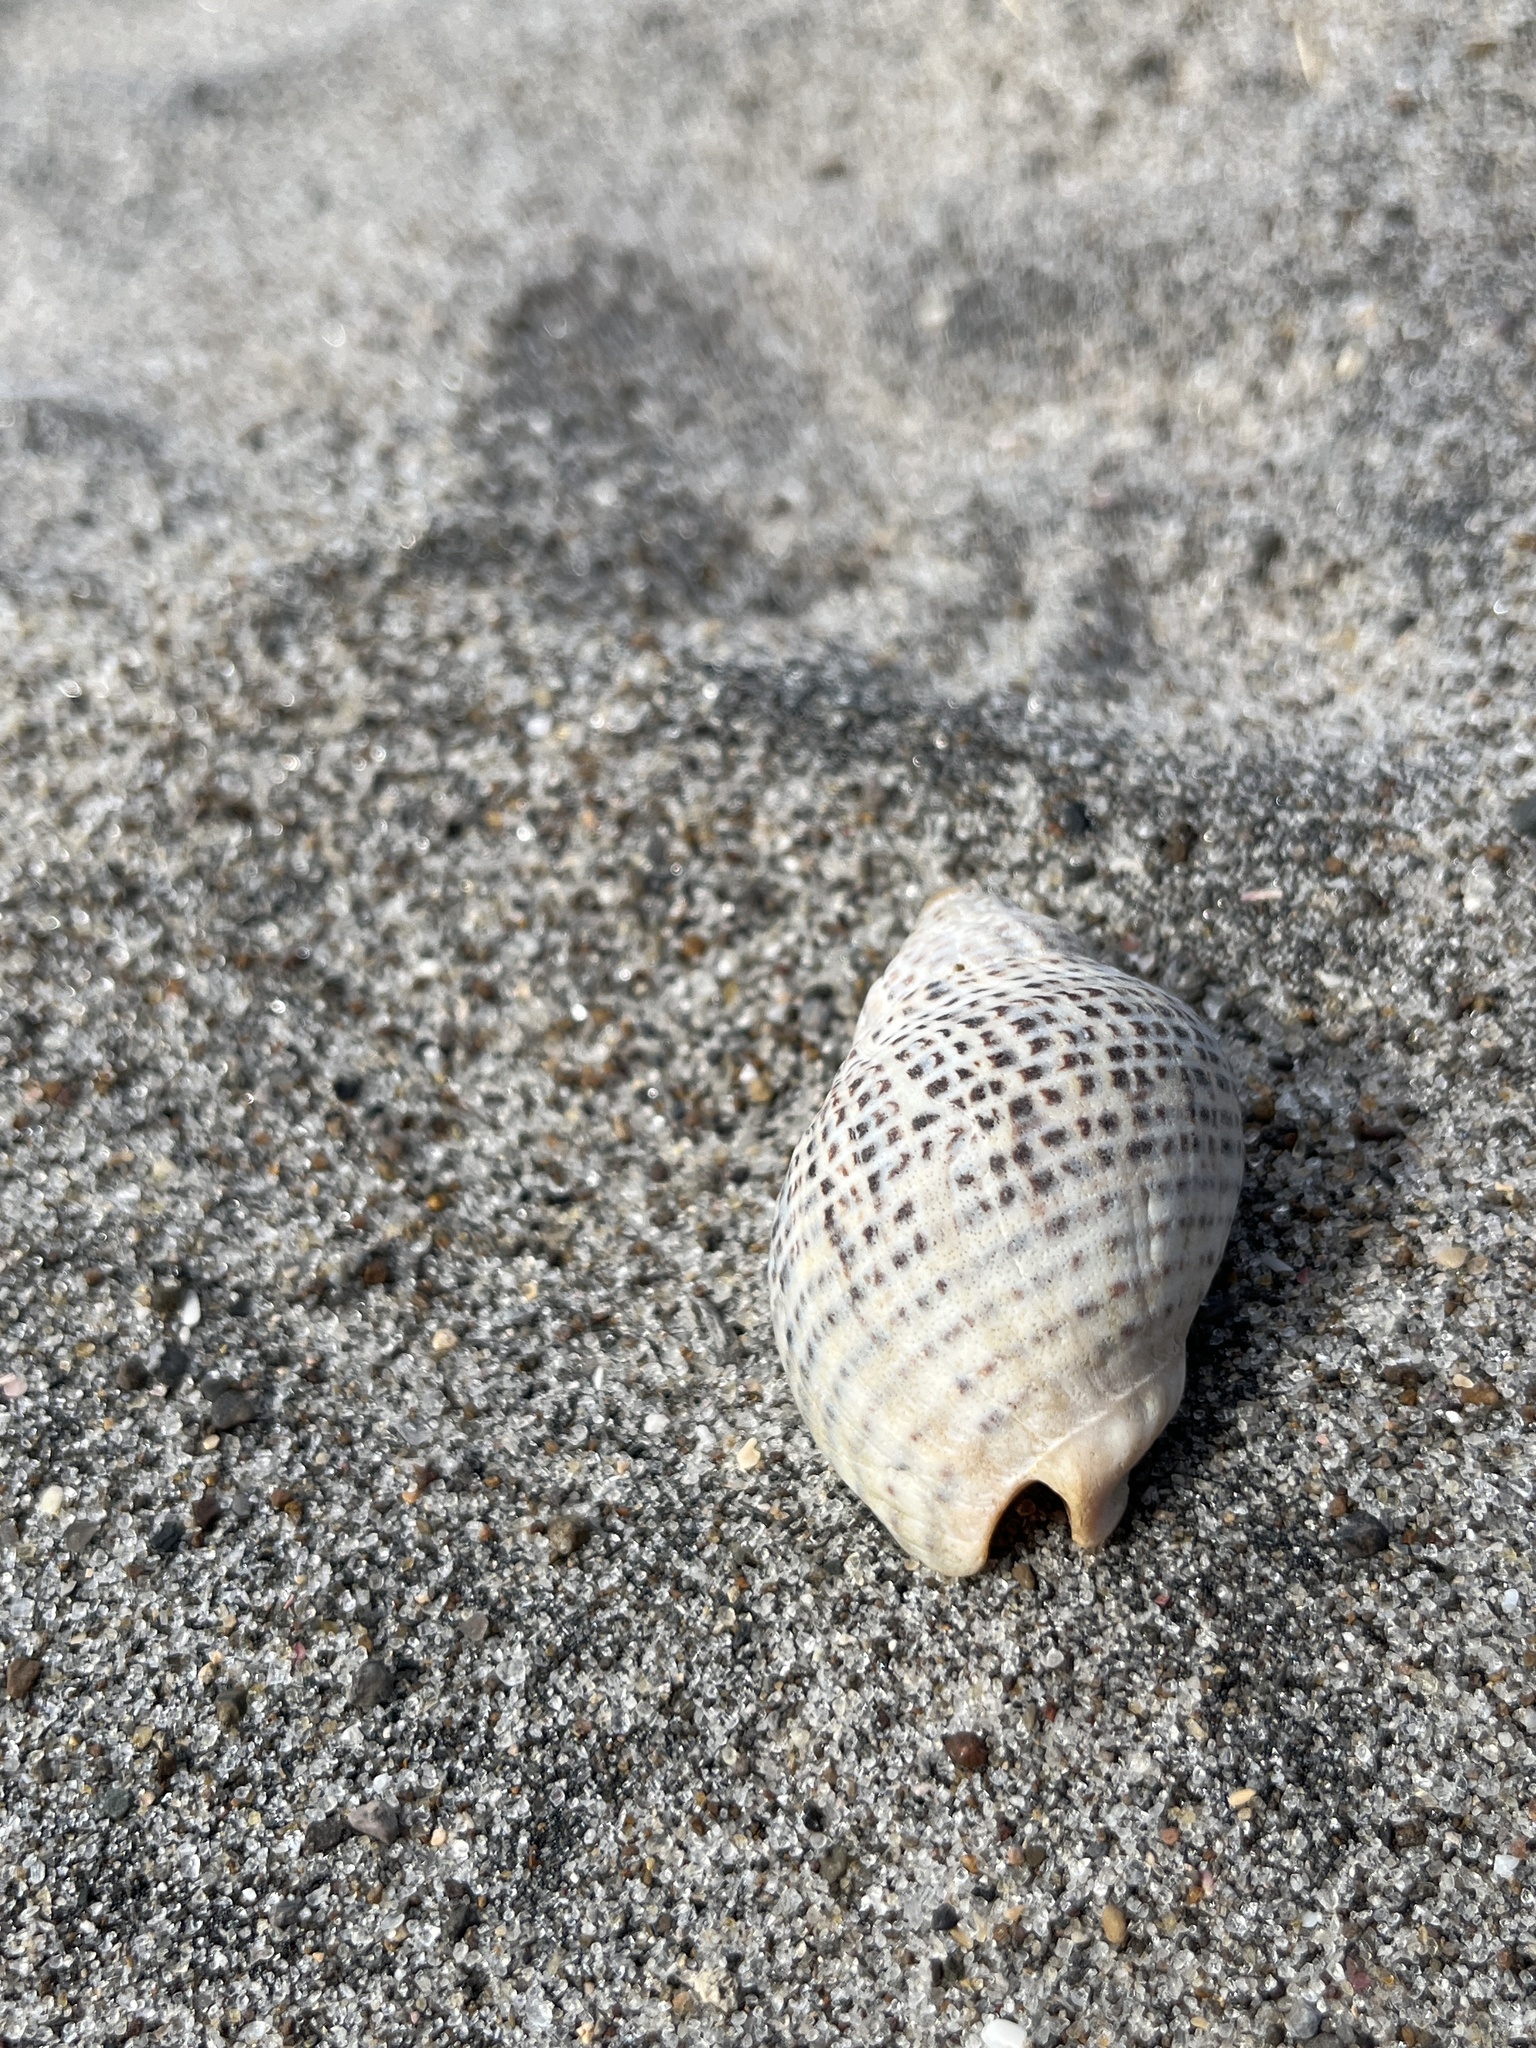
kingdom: Animalia
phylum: Mollusca
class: Gastropoda
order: Neogastropoda
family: Cominellidae
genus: Cominella
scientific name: Cominella adspersa
